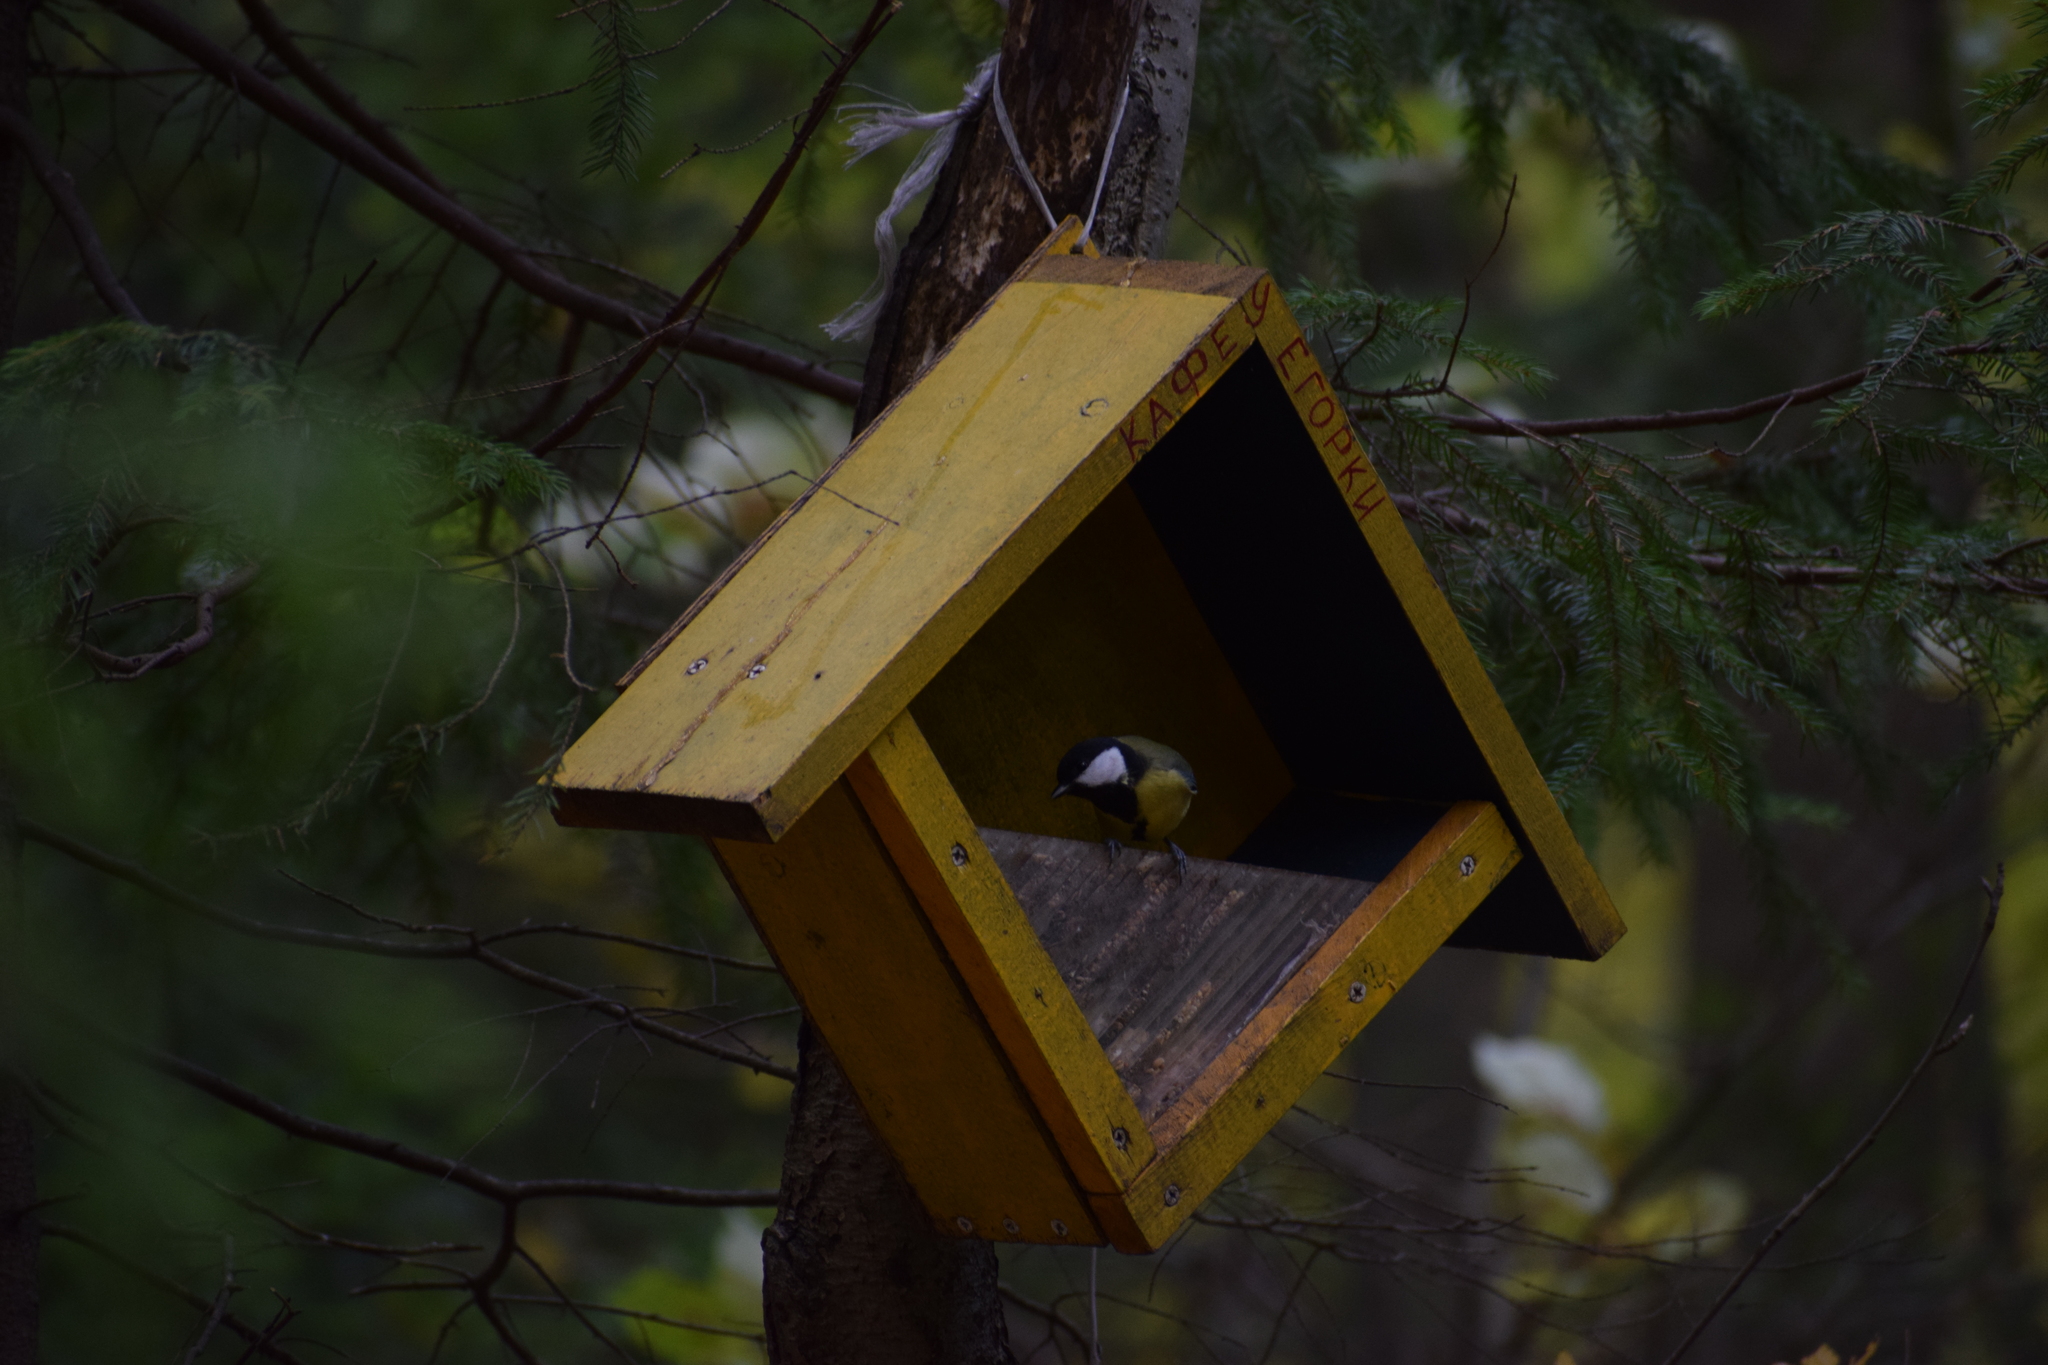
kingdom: Animalia
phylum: Chordata
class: Aves
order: Passeriformes
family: Paridae
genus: Parus
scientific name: Parus major
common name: Great tit
